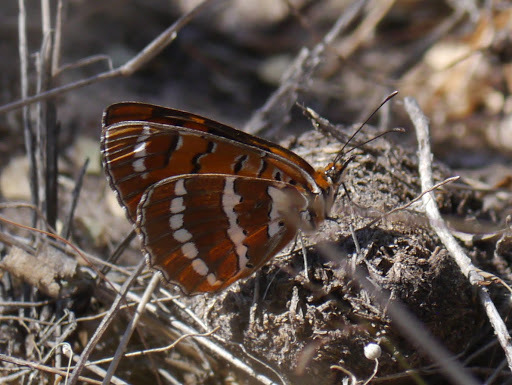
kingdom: Animalia
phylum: Arthropoda
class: Insecta
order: Lepidoptera
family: Nymphalidae
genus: Byblia
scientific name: Byblia ilithyia
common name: Spotted joker
